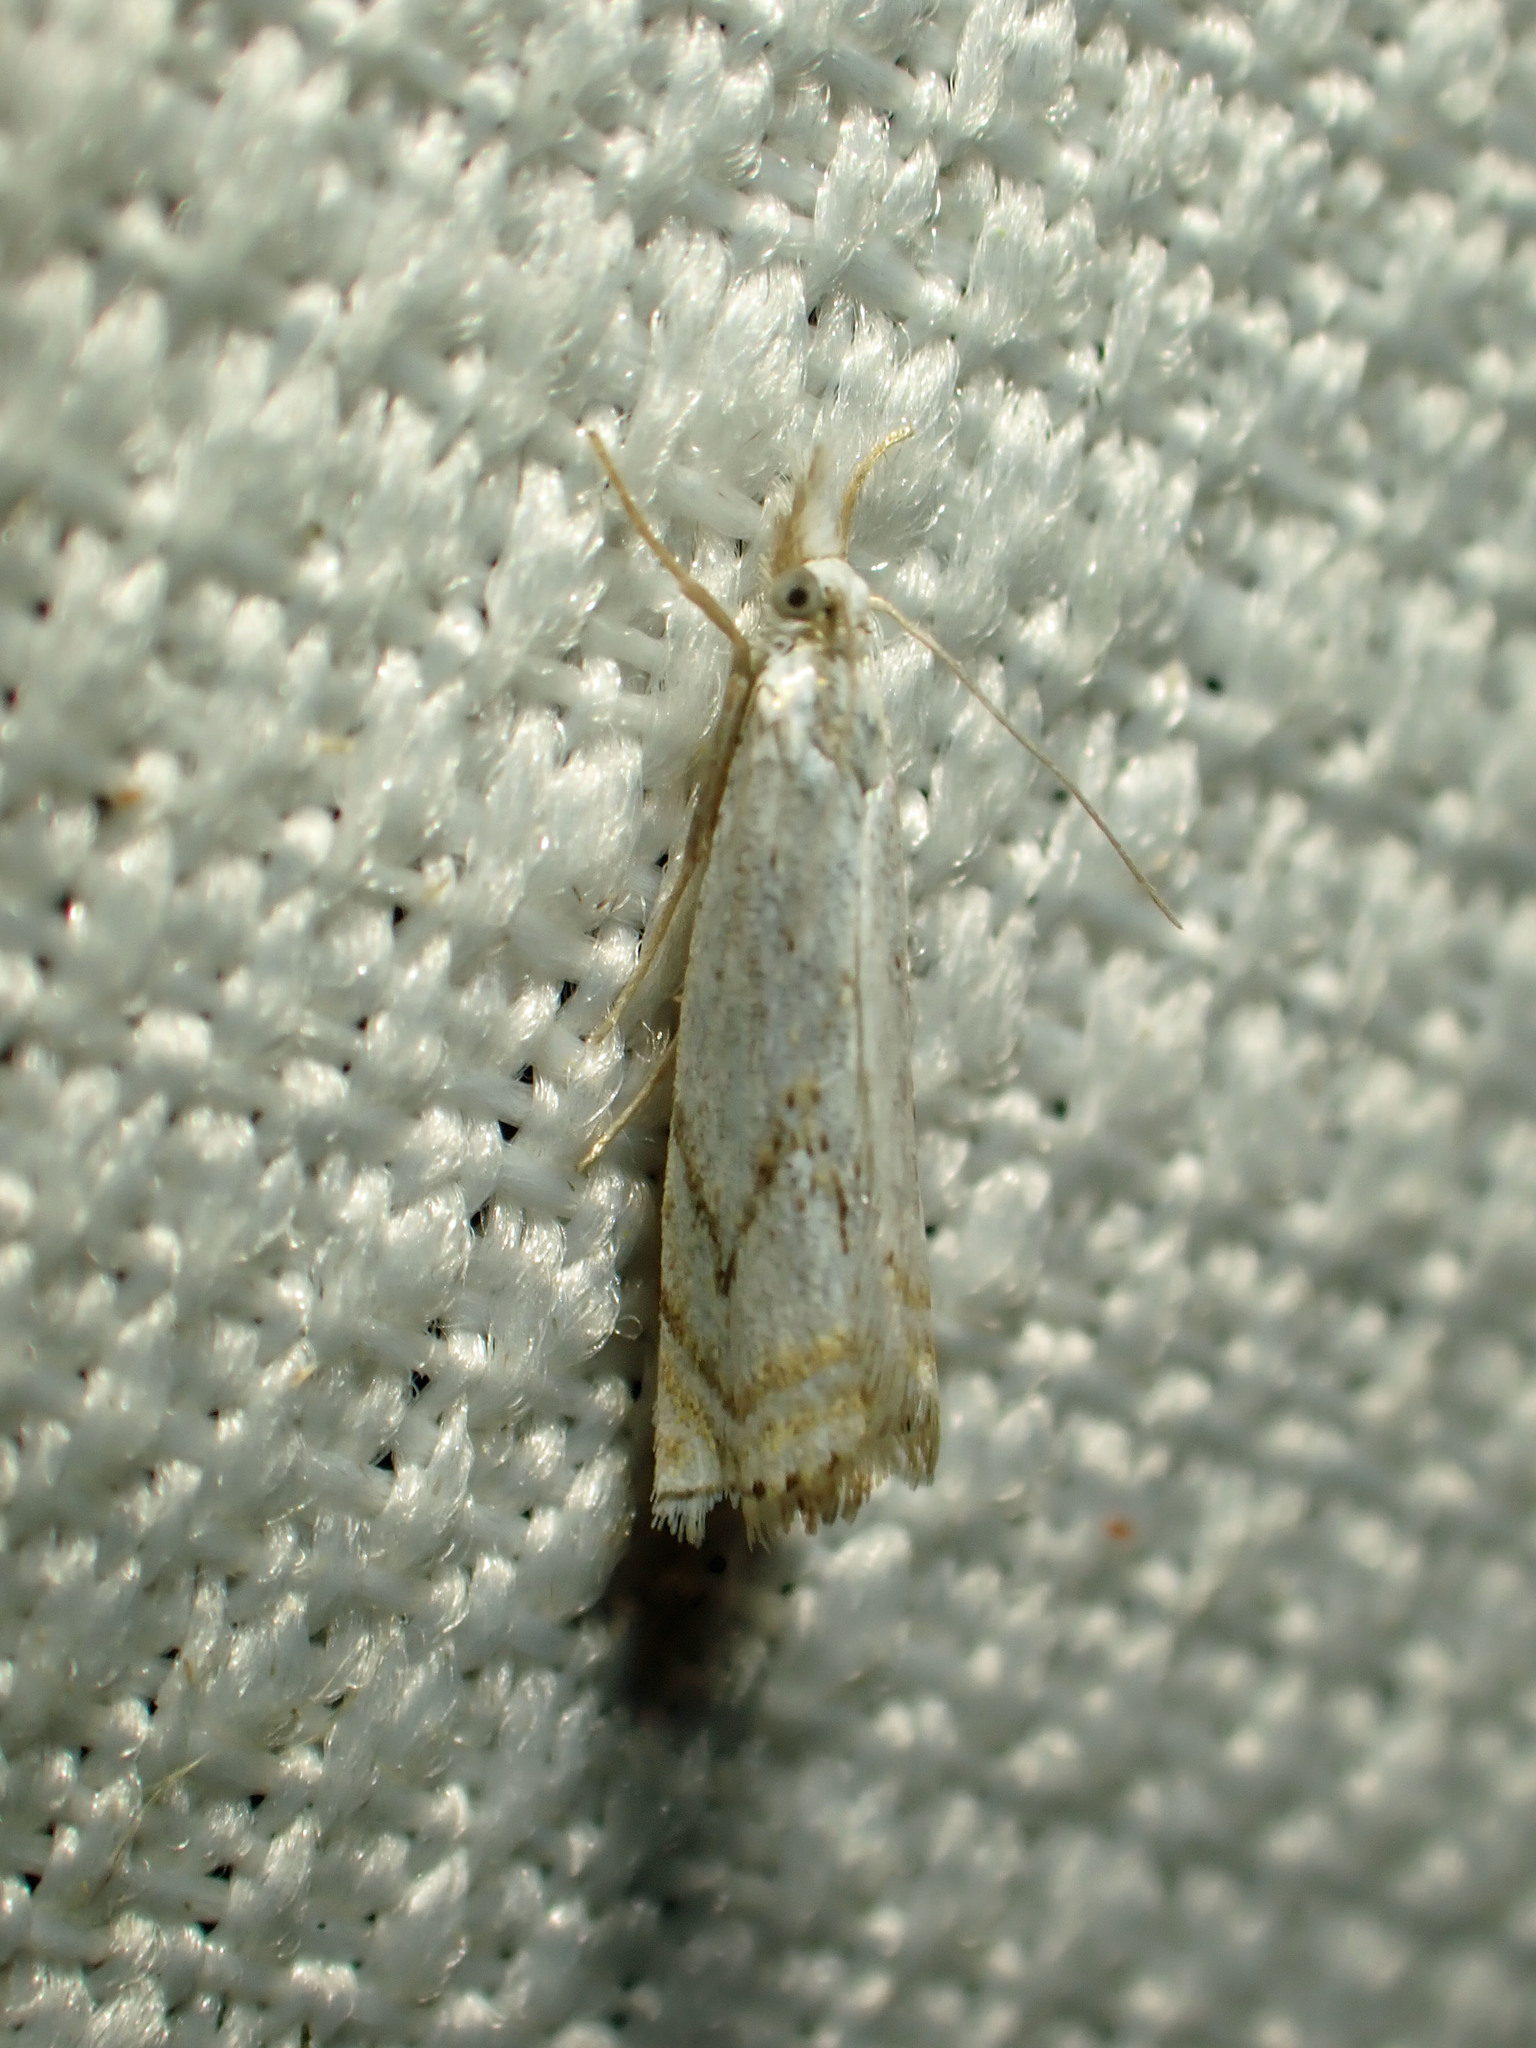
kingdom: Animalia
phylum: Arthropoda
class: Insecta
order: Lepidoptera
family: Crambidae
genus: Crambus
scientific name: Crambus albellus
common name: Small white grass-veneer
